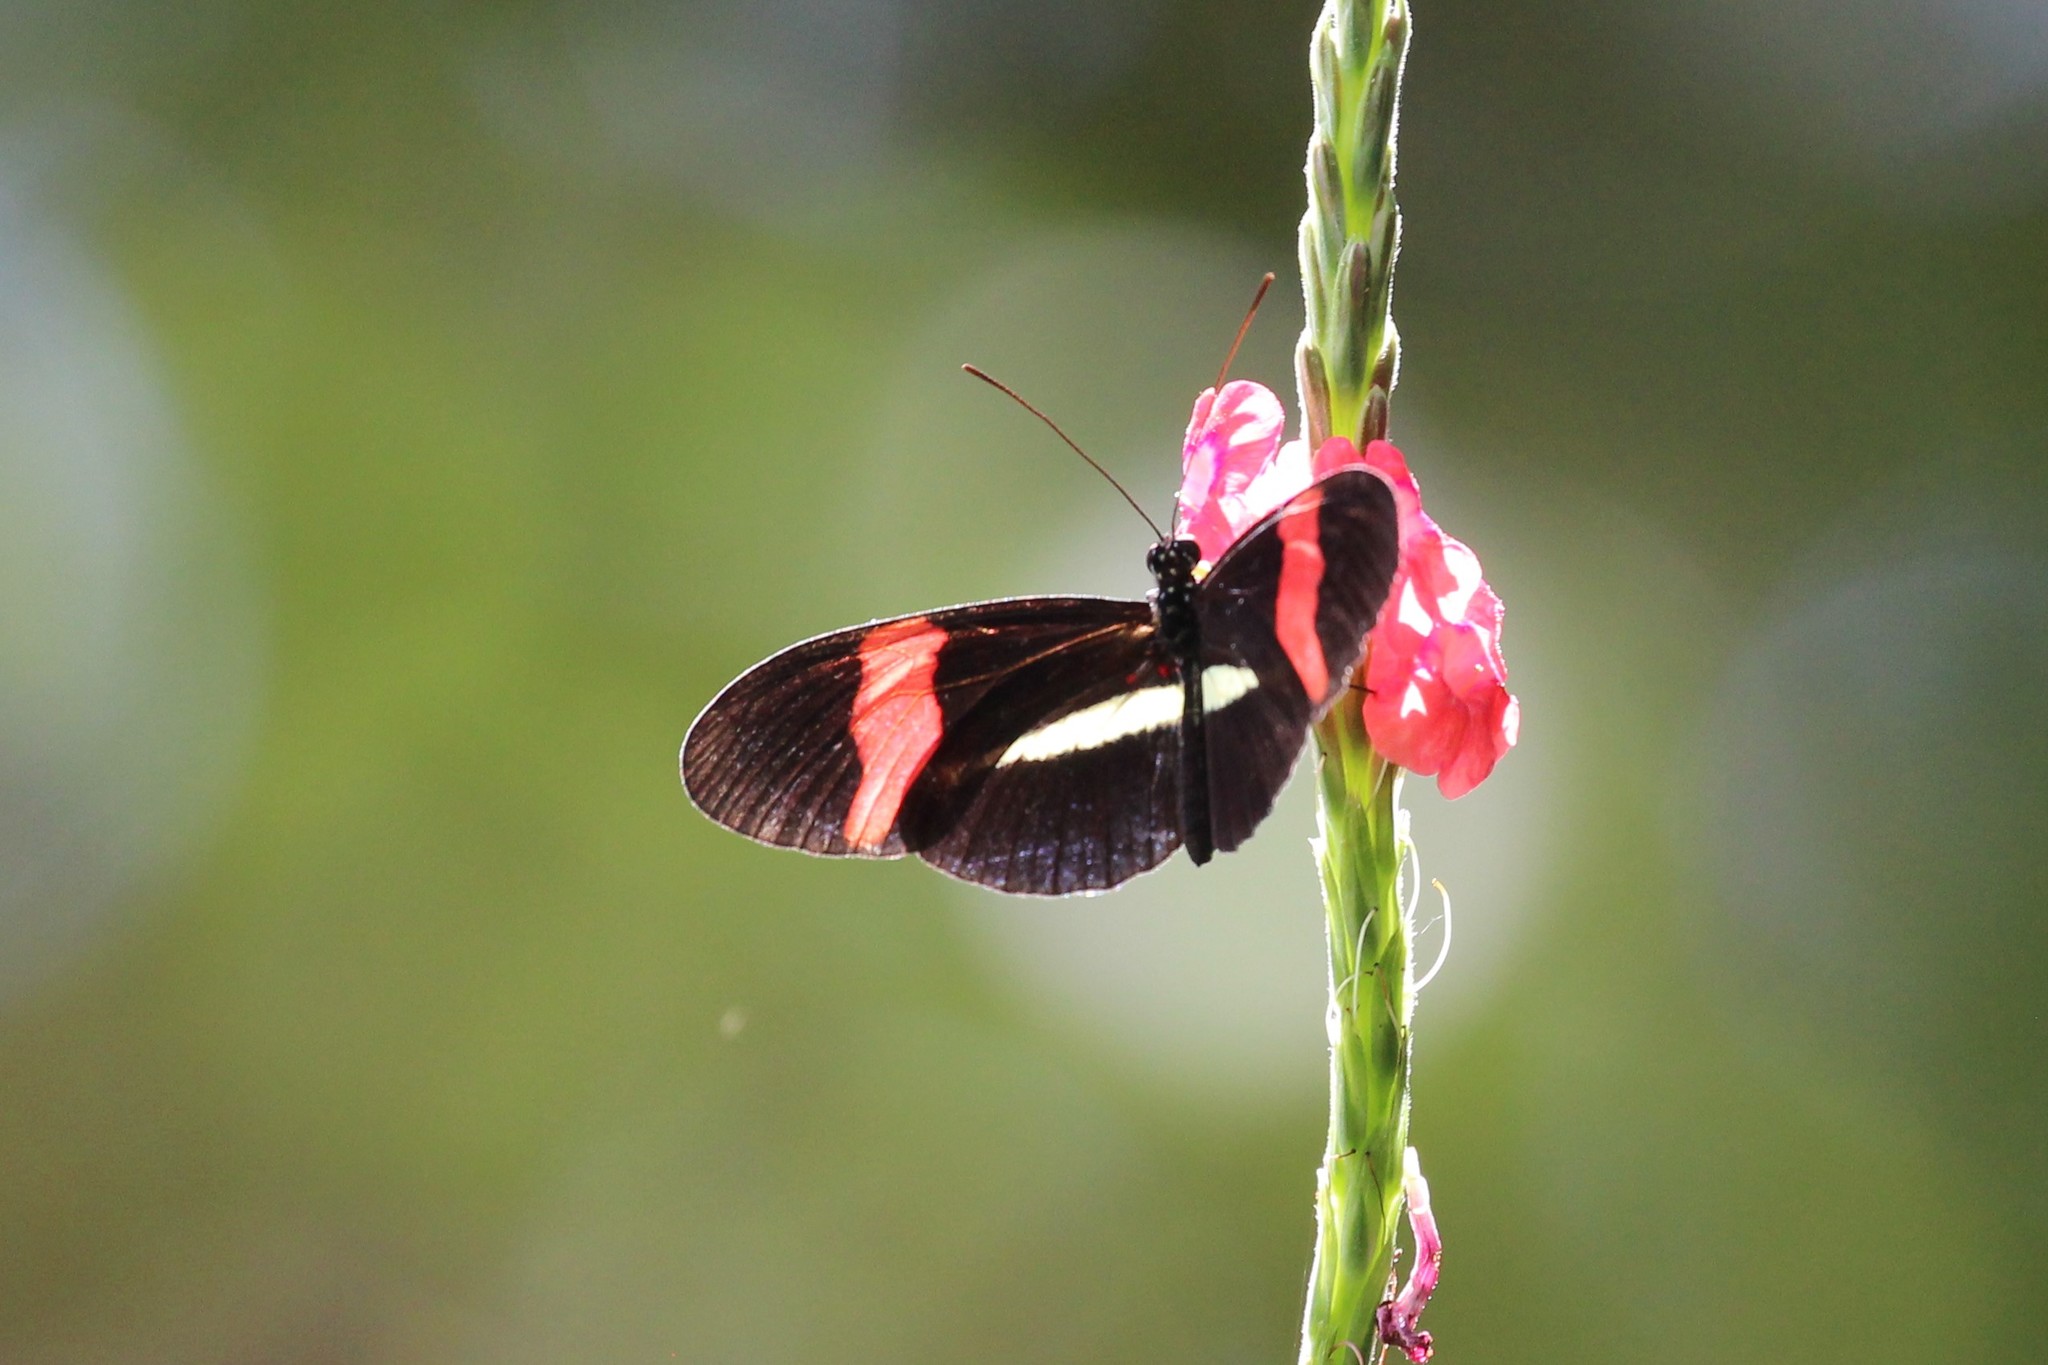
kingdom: Animalia
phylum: Arthropoda
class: Insecta
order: Lepidoptera
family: Nymphalidae
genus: Heliconius
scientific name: Heliconius erato
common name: Common patch longwing
